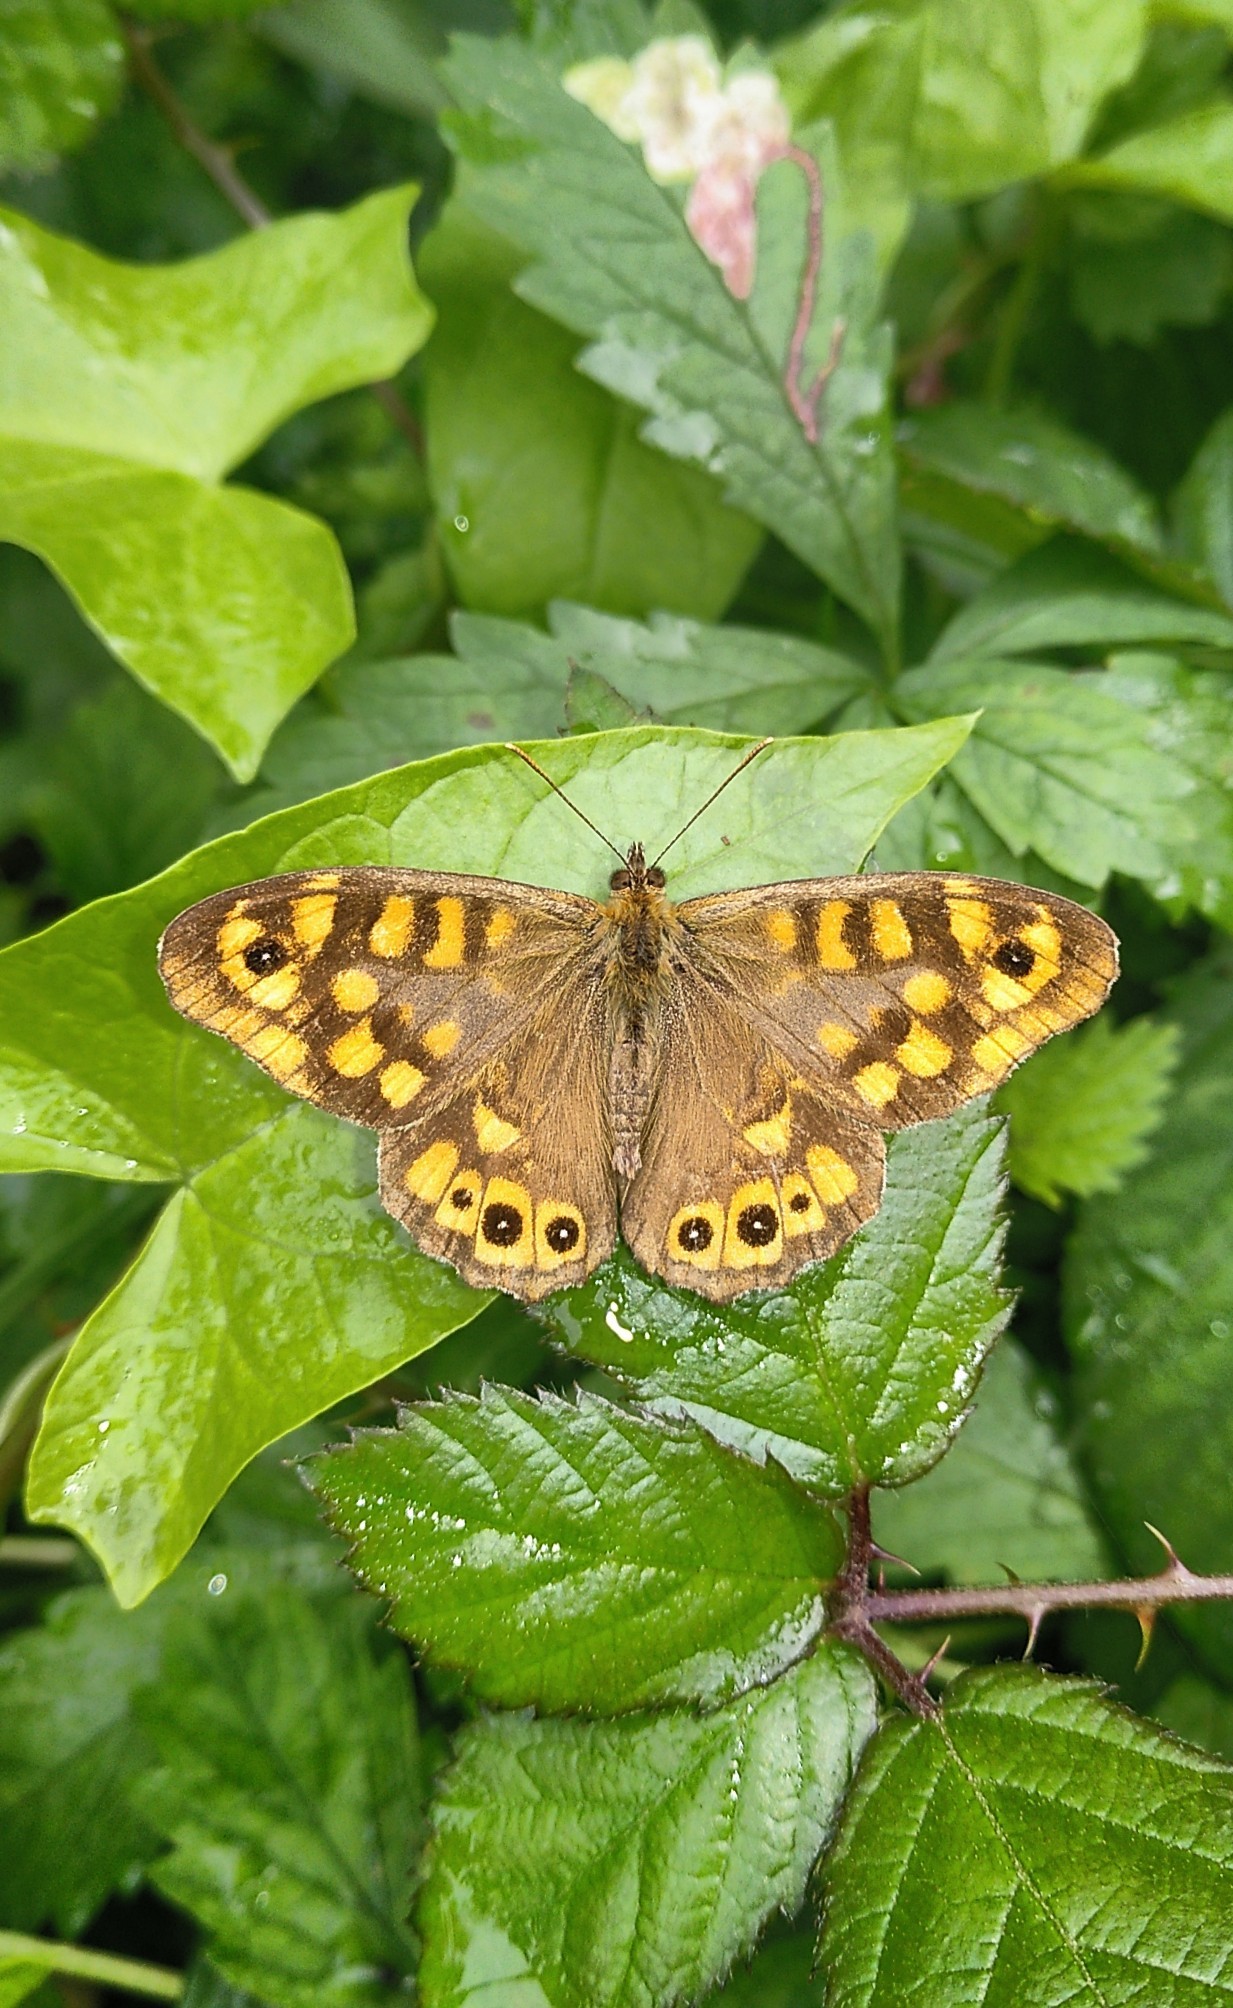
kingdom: Animalia
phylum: Arthropoda
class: Insecta
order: Lepidoptera
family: Nymphalidae
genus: Pararge
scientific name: Pararge aegeria
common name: Speckled wood
